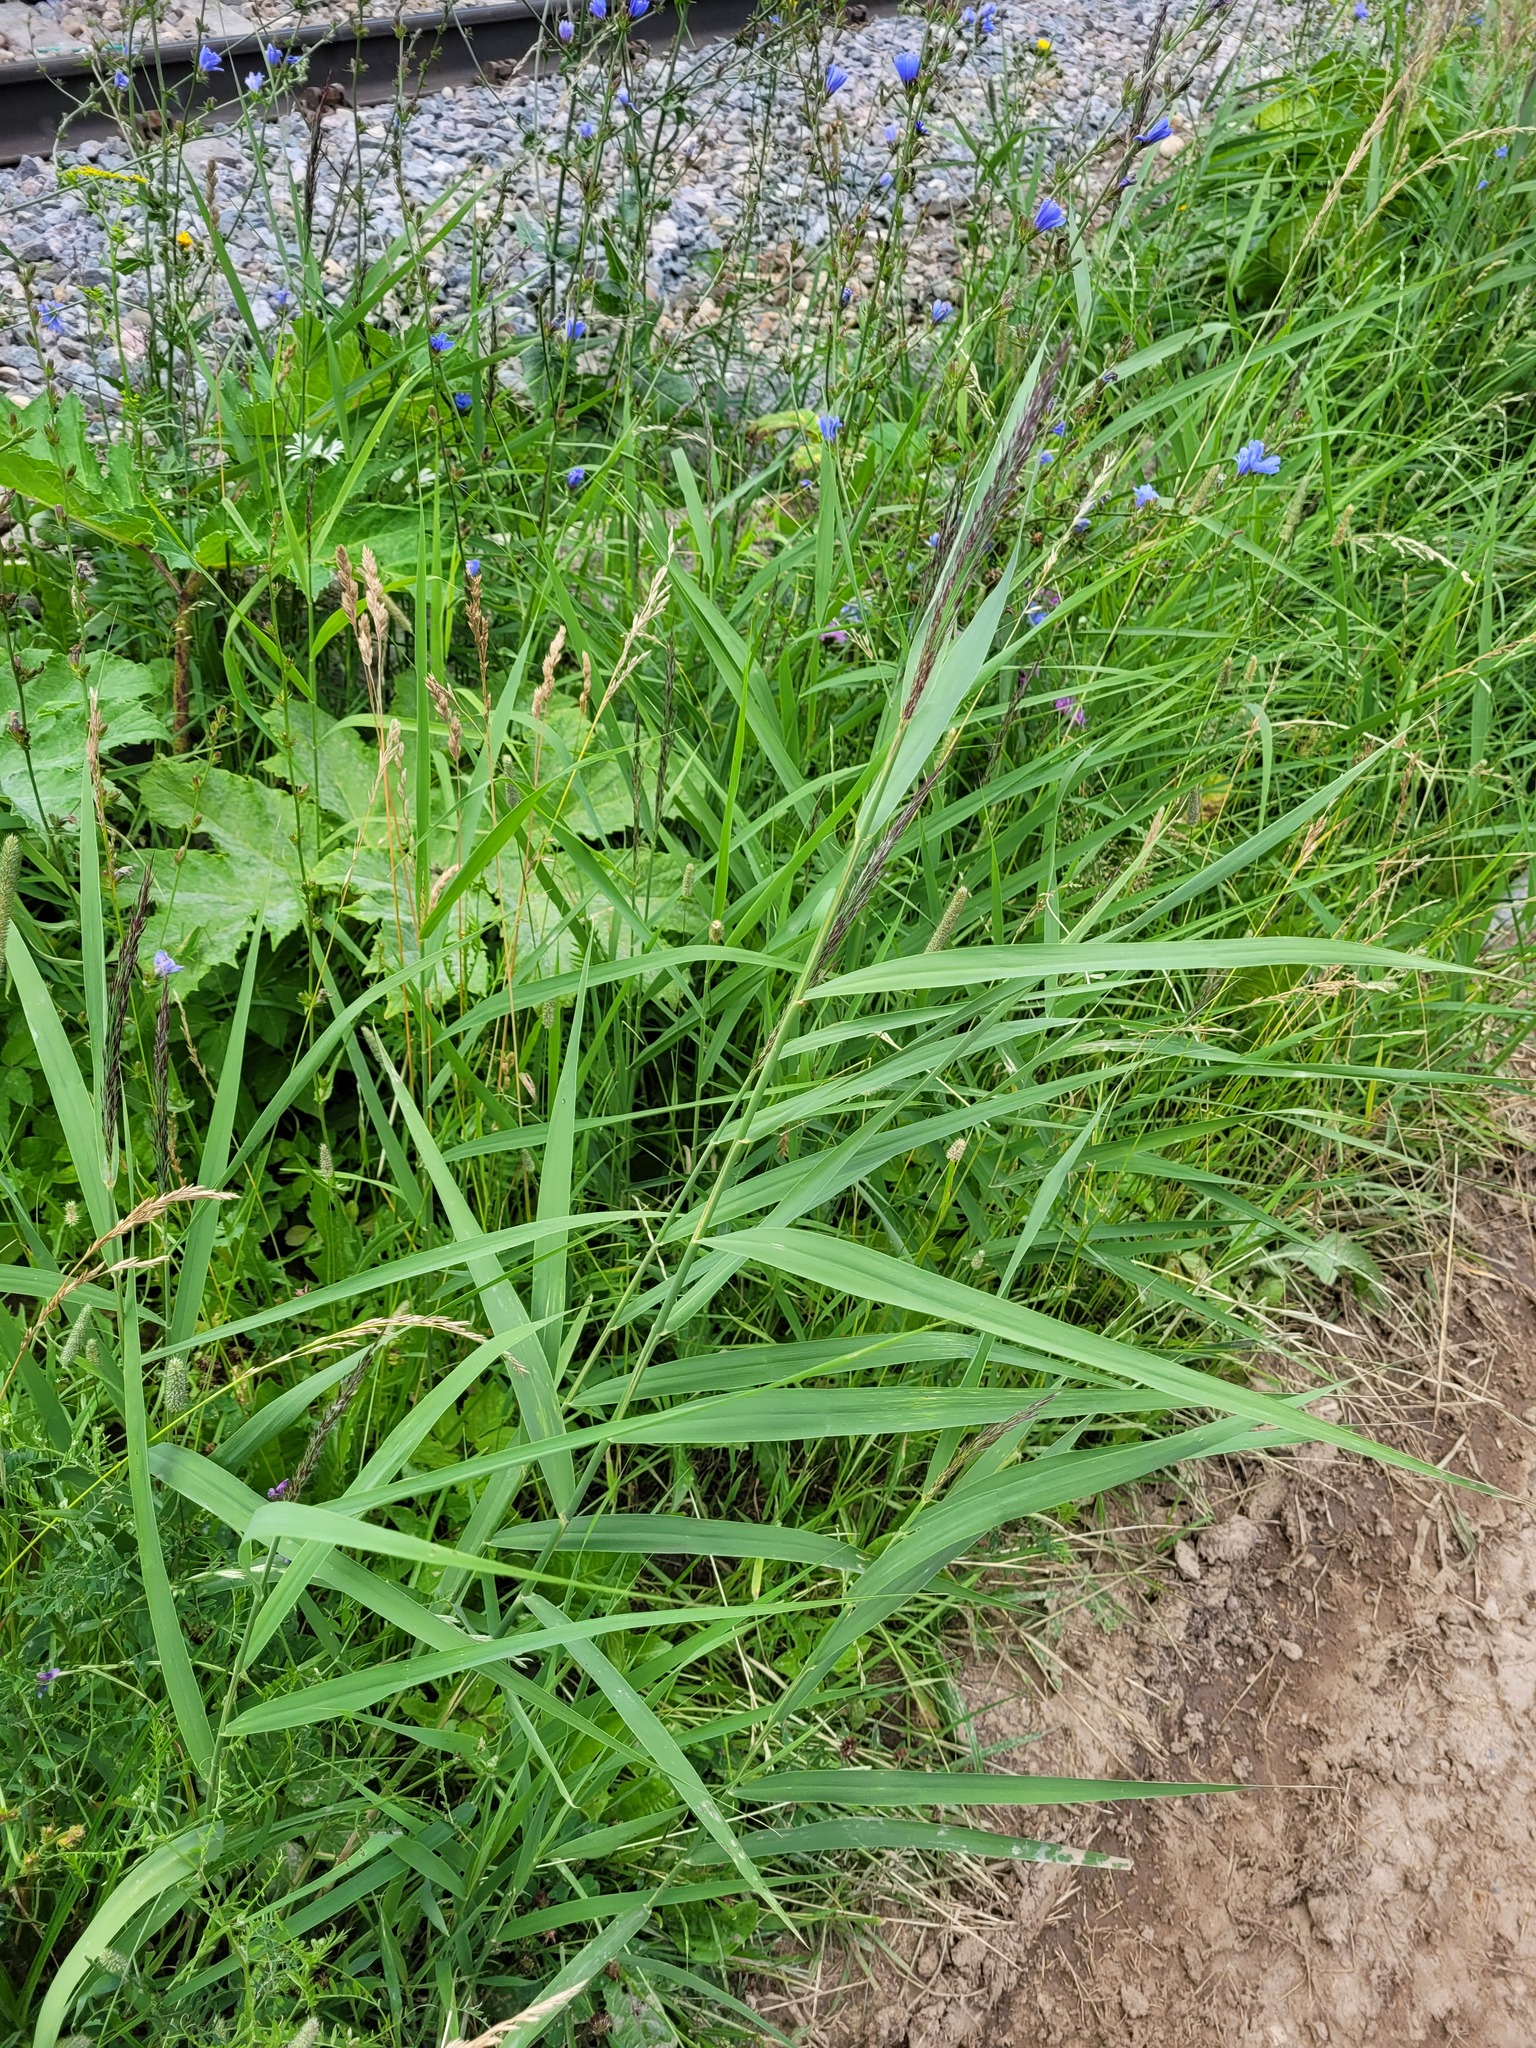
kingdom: Plantae
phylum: Tracheophyta
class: Liliopsida
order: Poales
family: Poaceae
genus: Phragmites
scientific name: Phragmites australis
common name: Common reed
